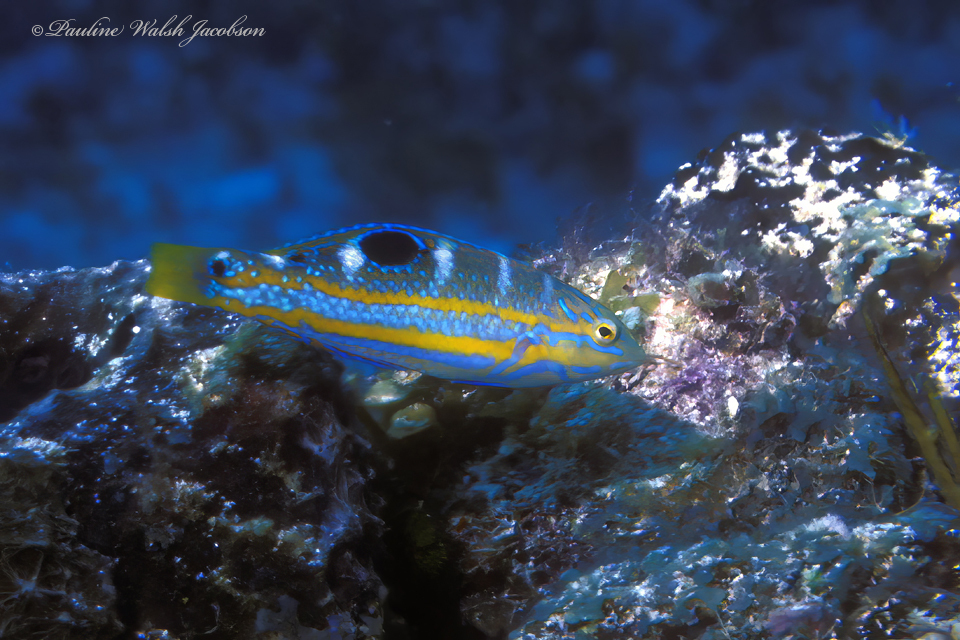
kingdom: Animalia
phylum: Chordata
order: Perciformes
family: Labridae
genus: Halichoeres
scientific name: Halichoeres radiatus
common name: Puddingwife
